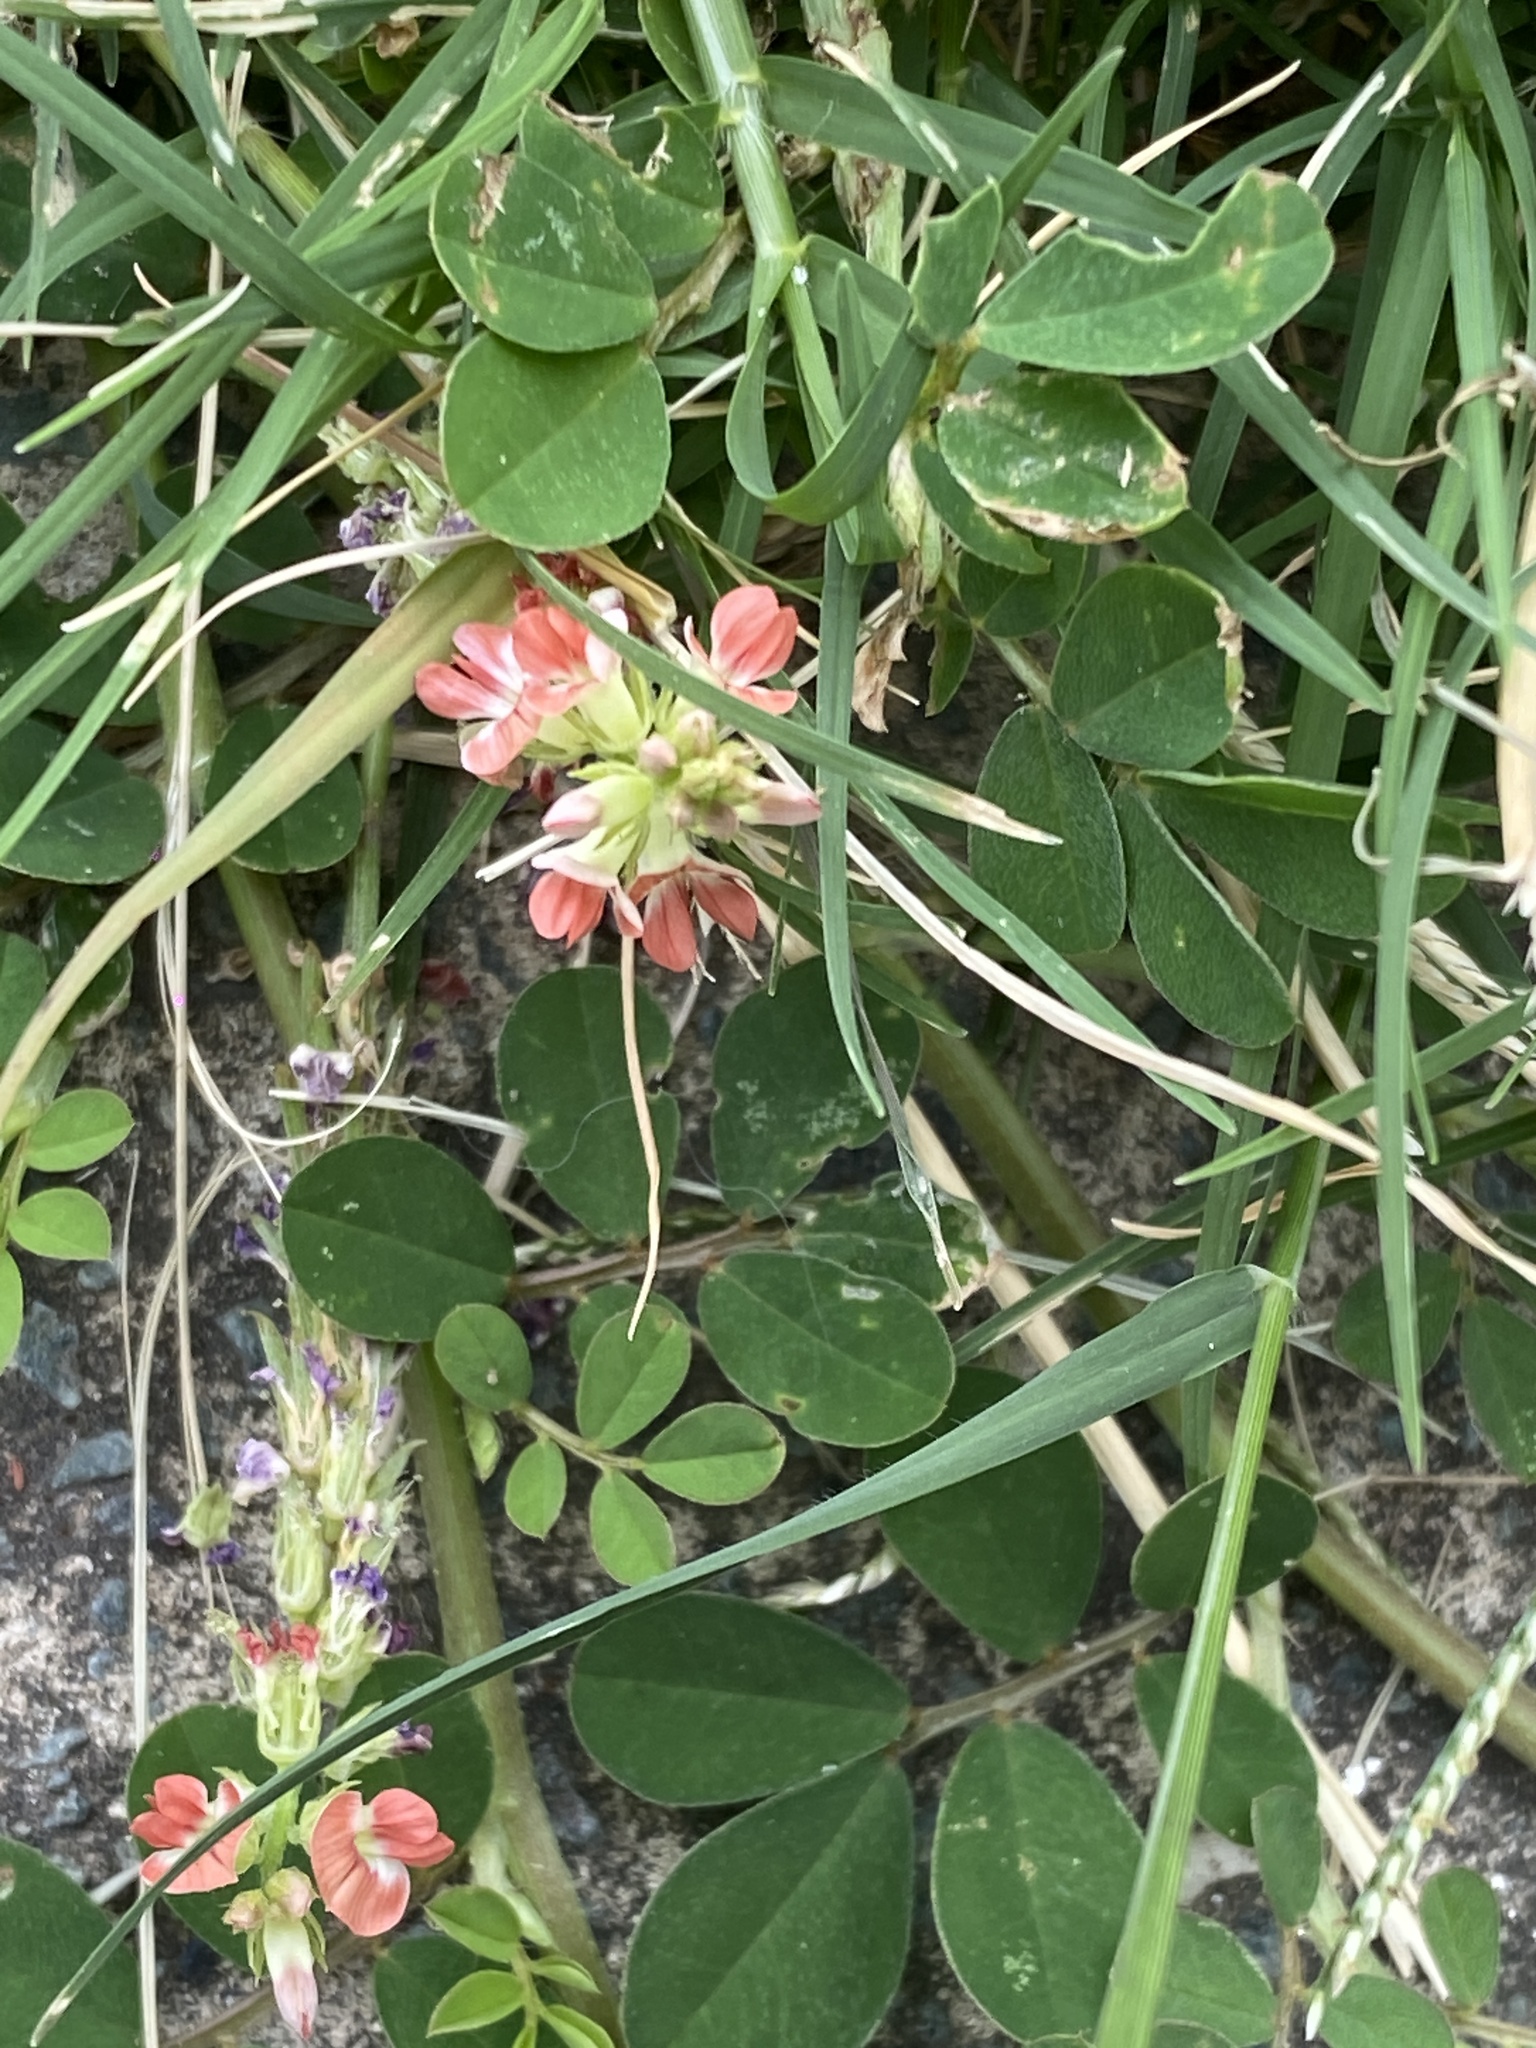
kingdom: Plantae
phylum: Tracheophyta
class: Magnoliopsida
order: Fabales
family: Fabaceae
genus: Indigofera
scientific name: Indigofera spicata
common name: Creeping indigo
